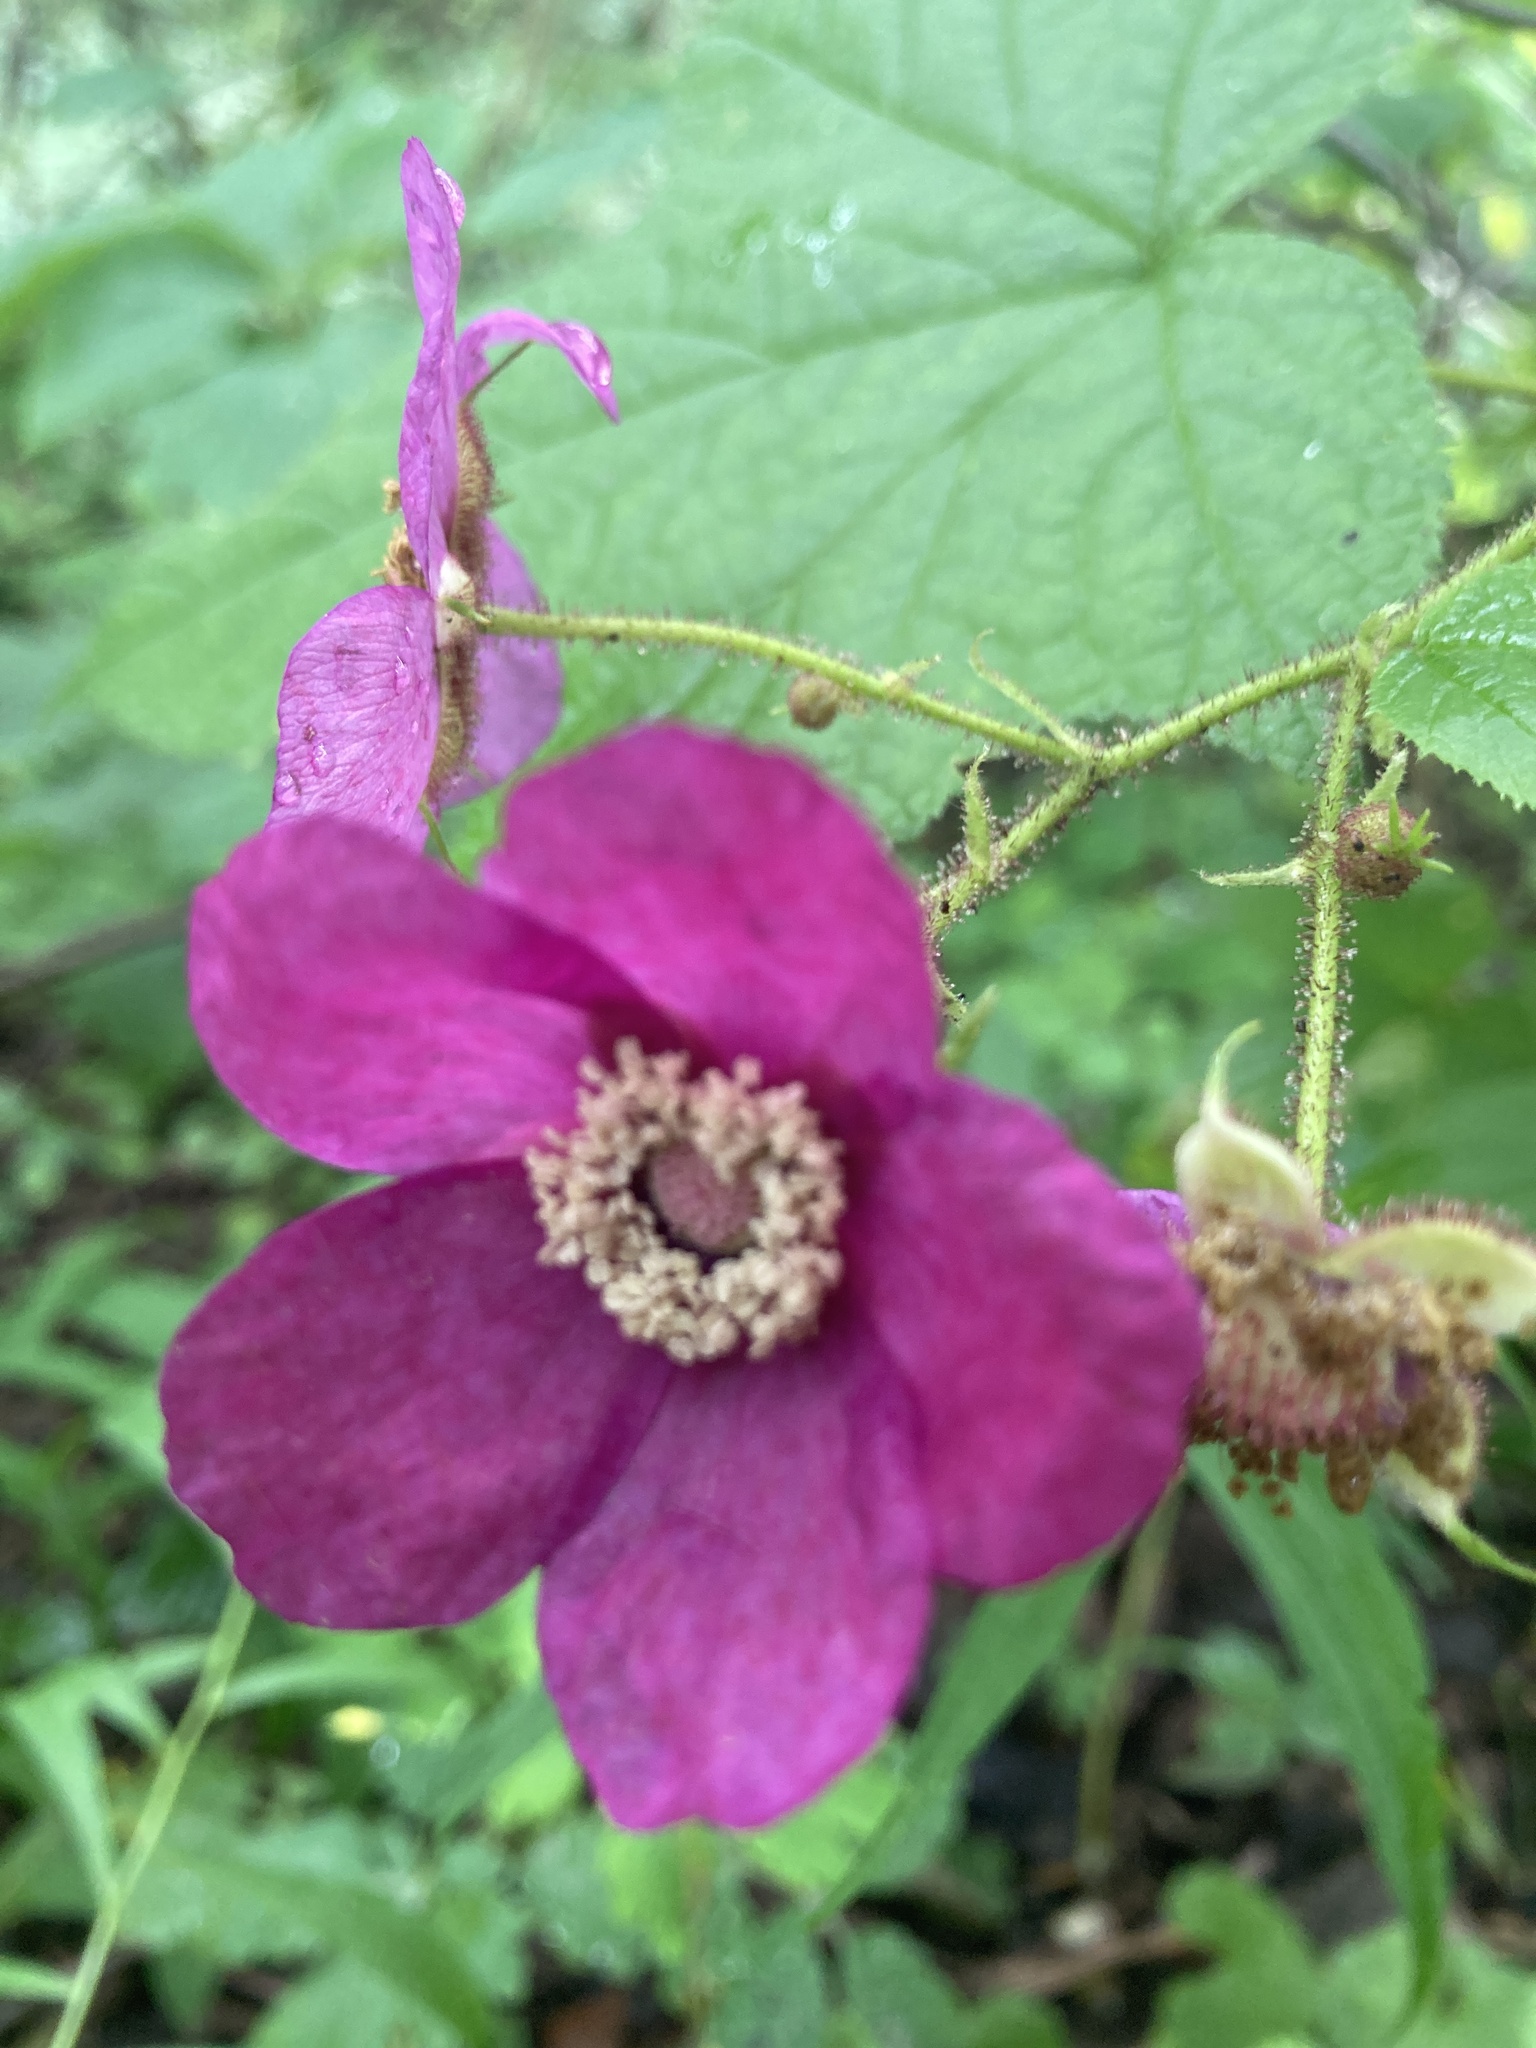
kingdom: Plantae
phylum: Tracheophyta
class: Magnoliopsida
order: Rosales
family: Rosaceae
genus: Rubus
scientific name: Rubus odoratus
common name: Purple-flowered raspberry
